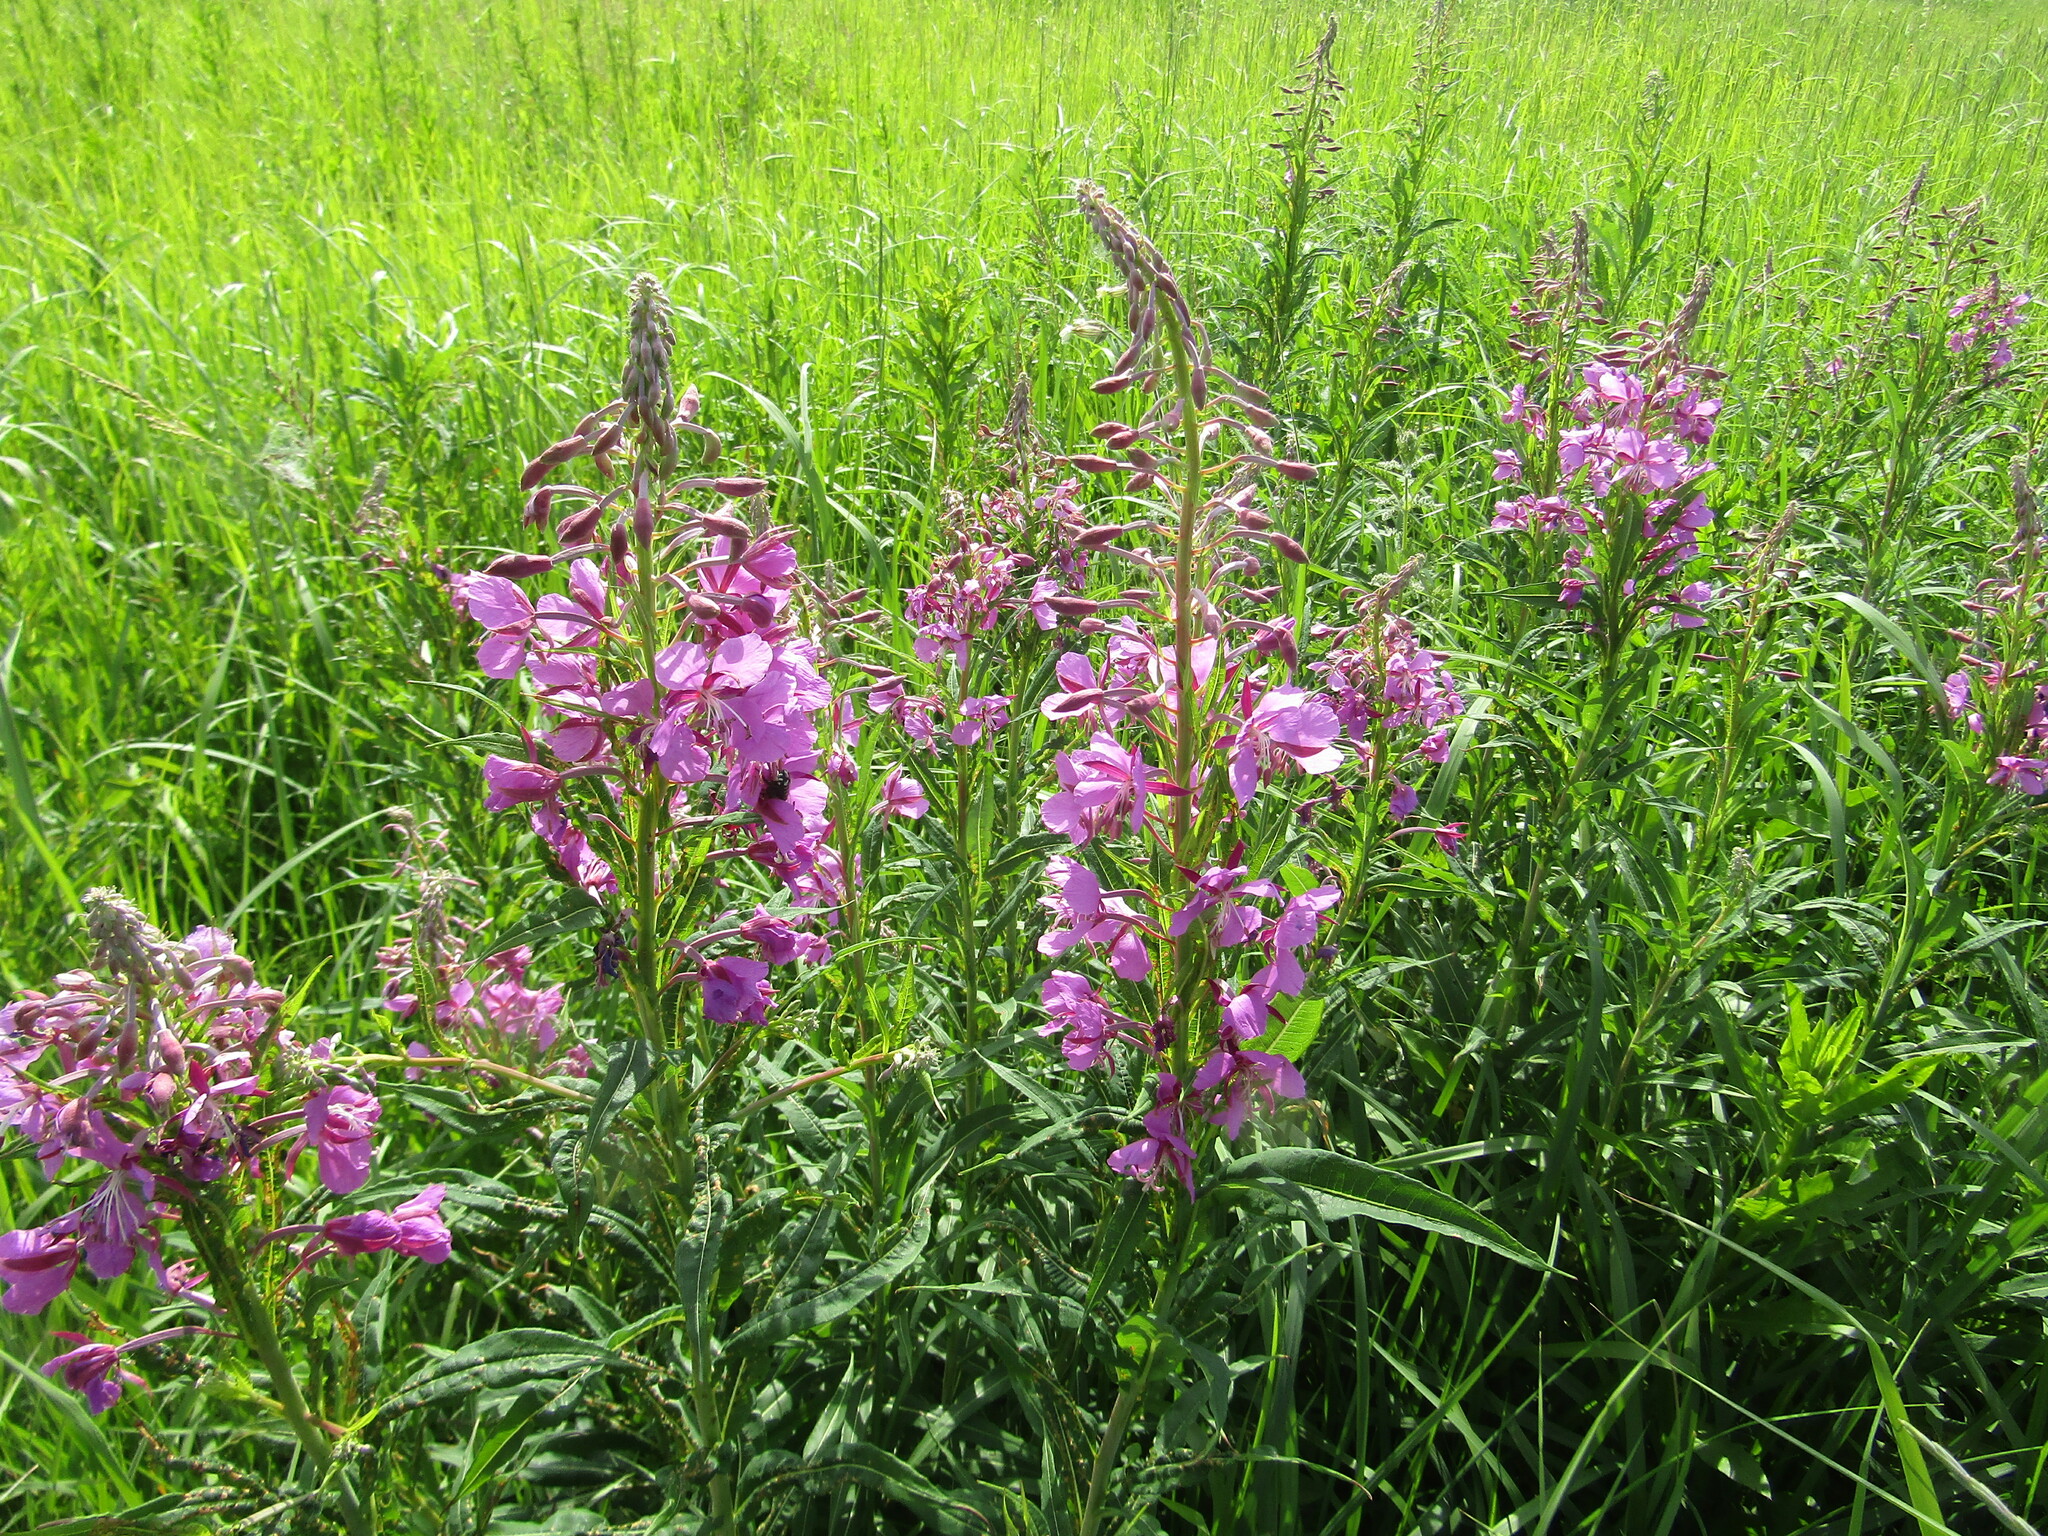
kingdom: Plantae
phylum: Tracheophyta
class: Magnoliopsida
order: Myrtales
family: Onagraceae
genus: Chamaenerion
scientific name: Chamaenerion angustifolium
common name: Fireweed
